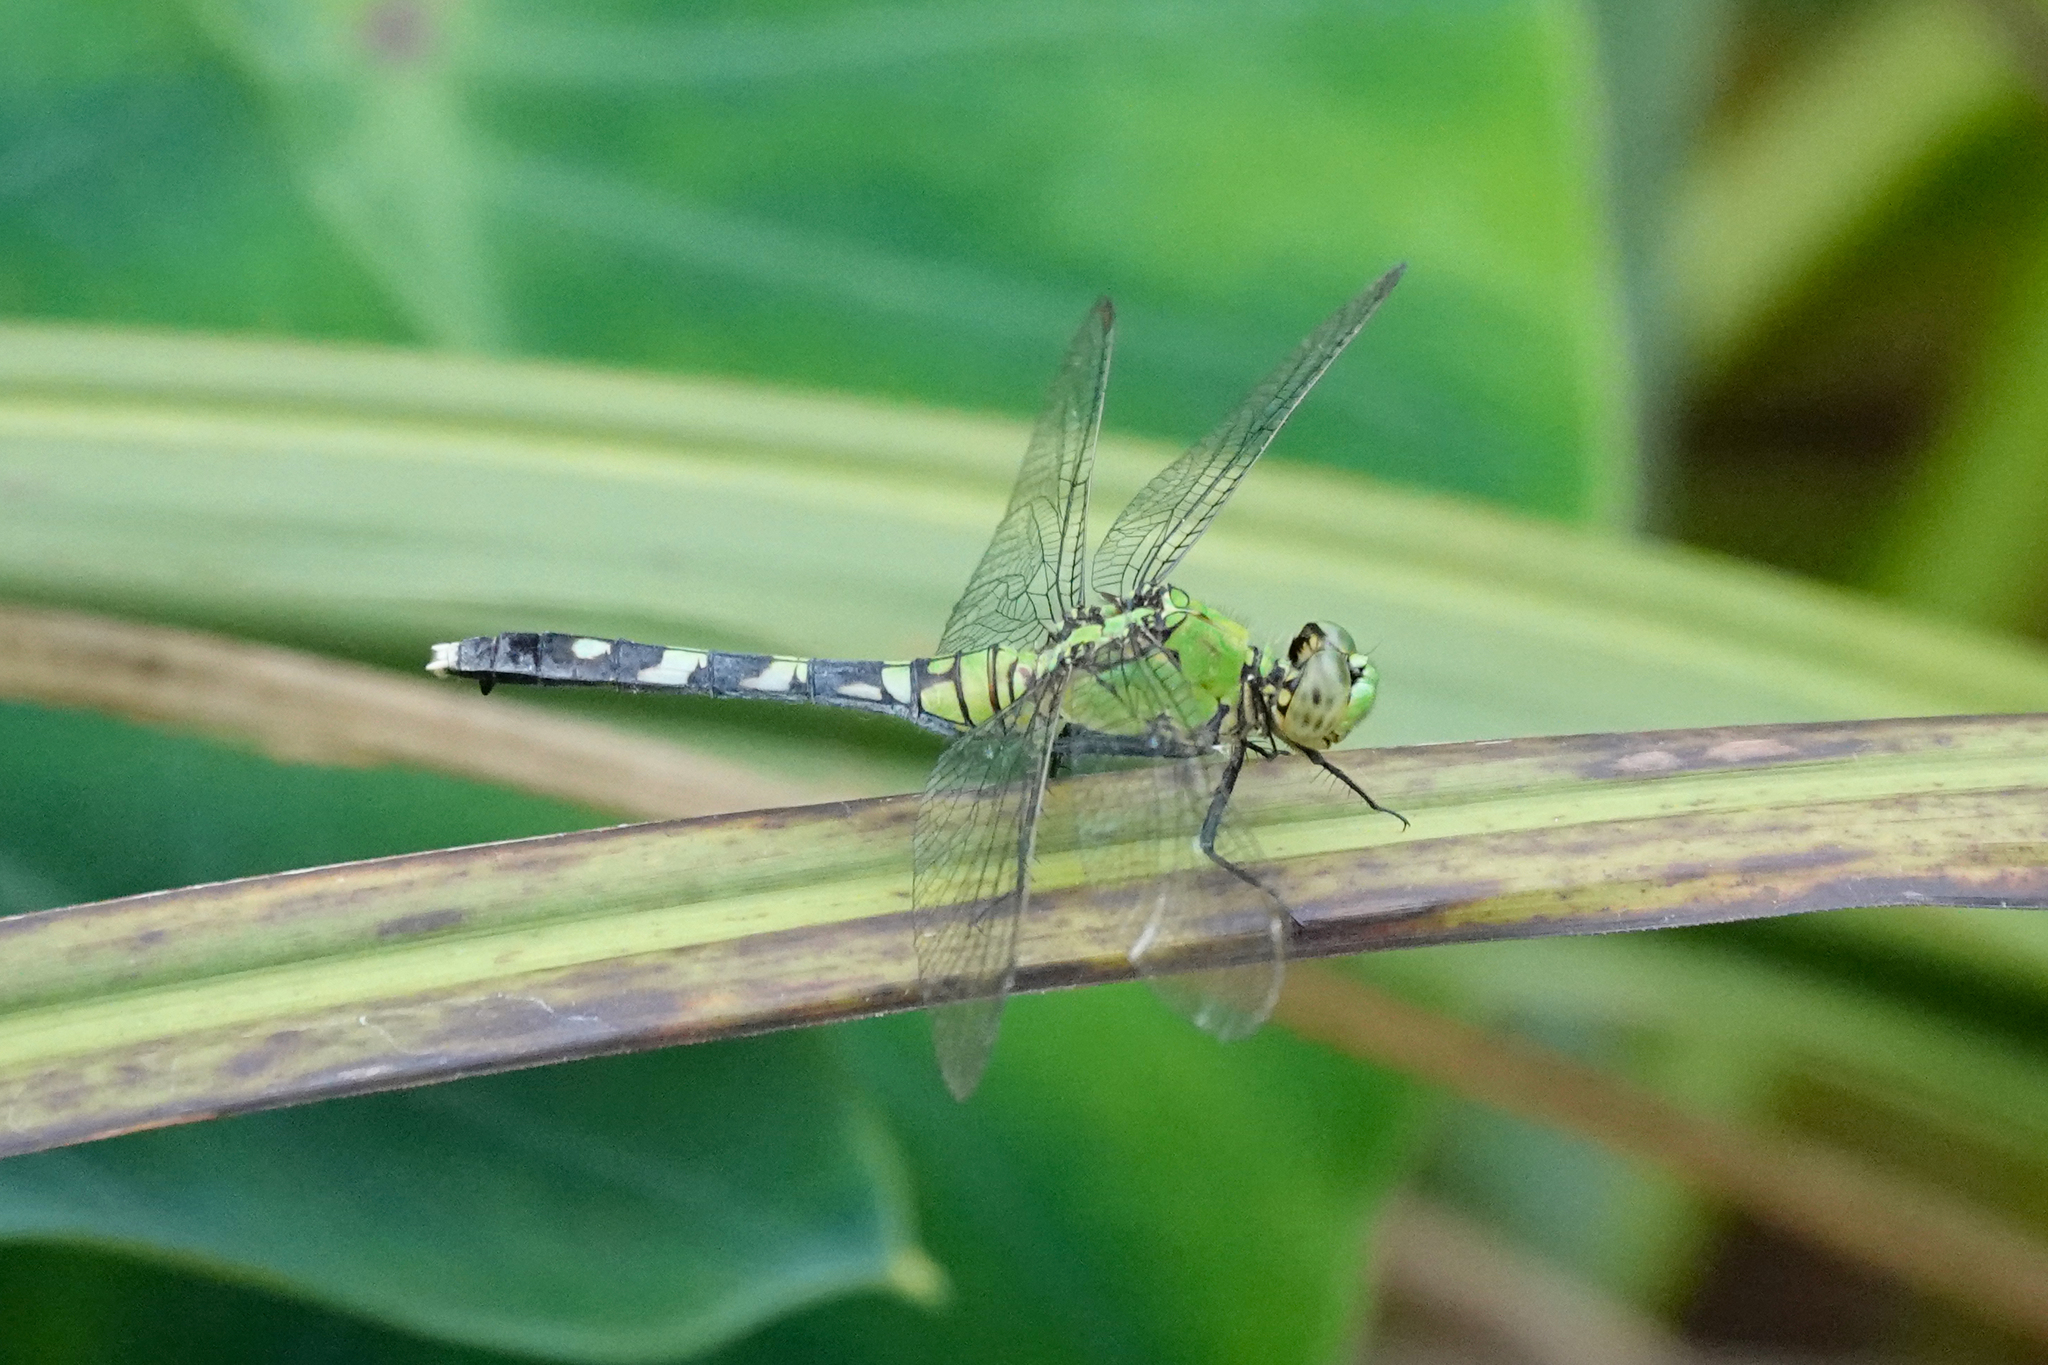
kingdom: Animalia
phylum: Arthropoda
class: Insecta
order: Odonata
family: Libellulidae
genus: Erythemis
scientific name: Erythemis simplicicollis
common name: Eastern pondhawk
